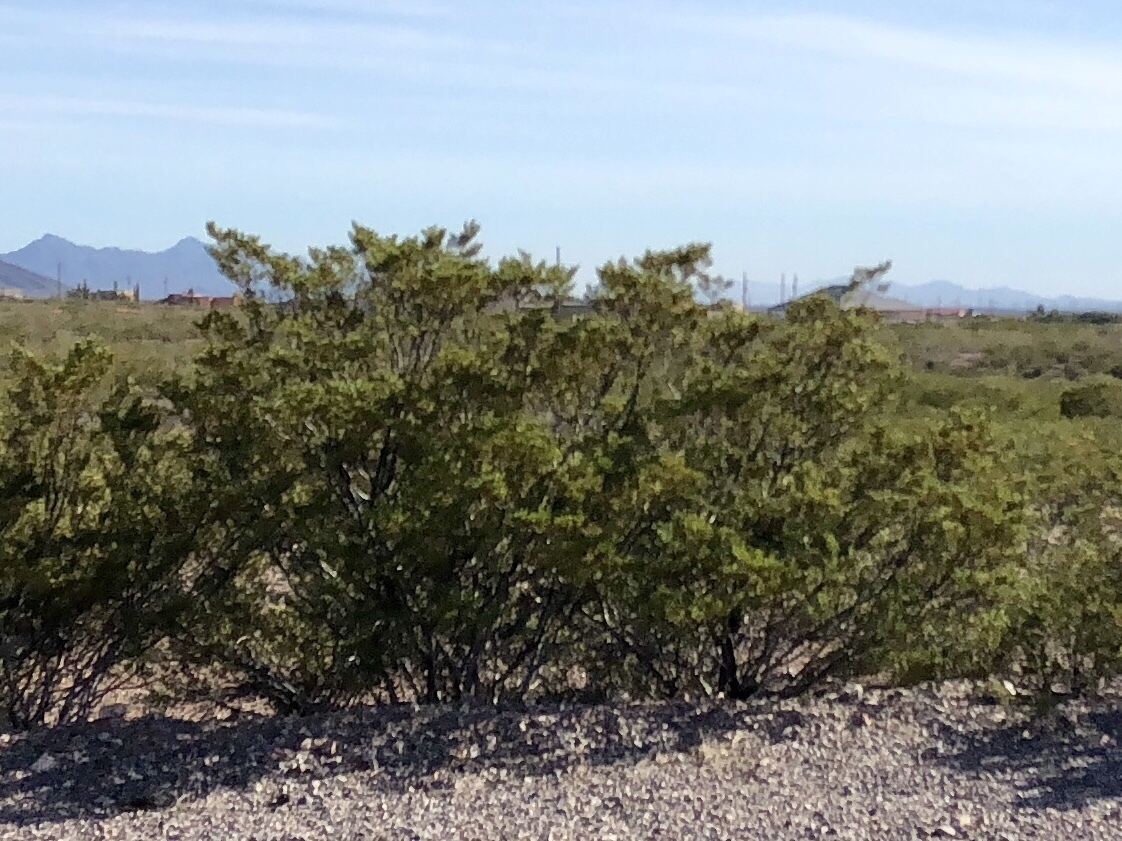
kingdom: Plantae
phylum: Tracheophyta
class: Magnoliopsida
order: Zygophyllales
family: Zygophyllaceae
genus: Larrea
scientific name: Larrea tridentata
